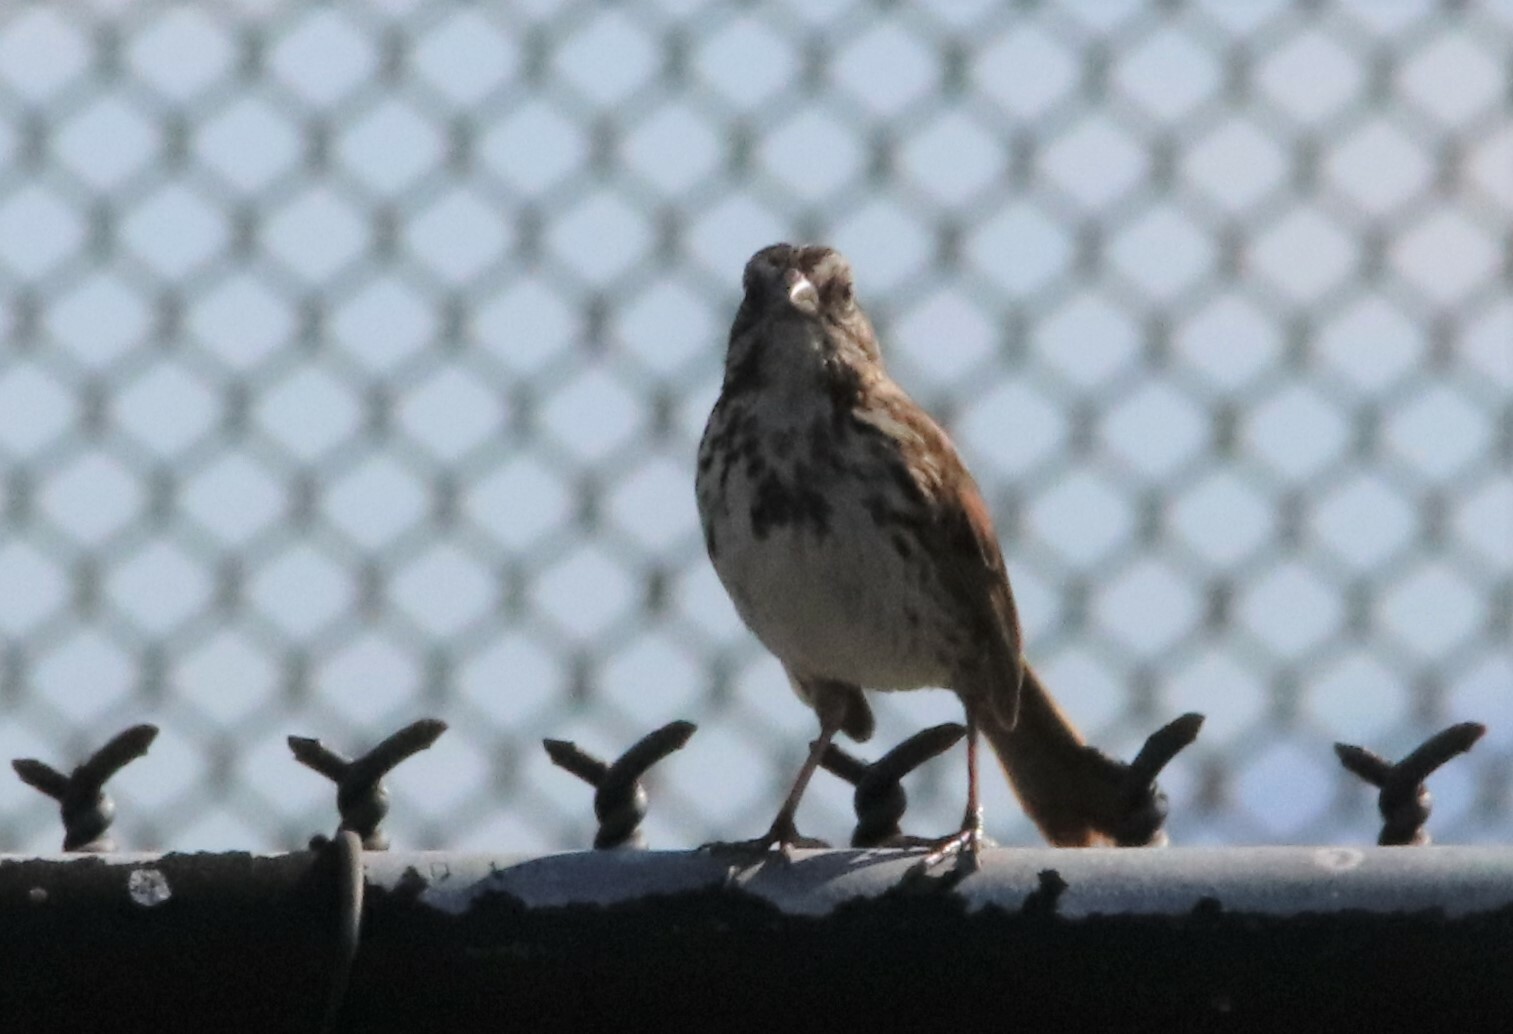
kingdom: Animalia
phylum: Chordata
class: Aves
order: Passeriformes
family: Passerellidae
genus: Melospiza
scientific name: Melospiza melodia
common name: Song sparrow
